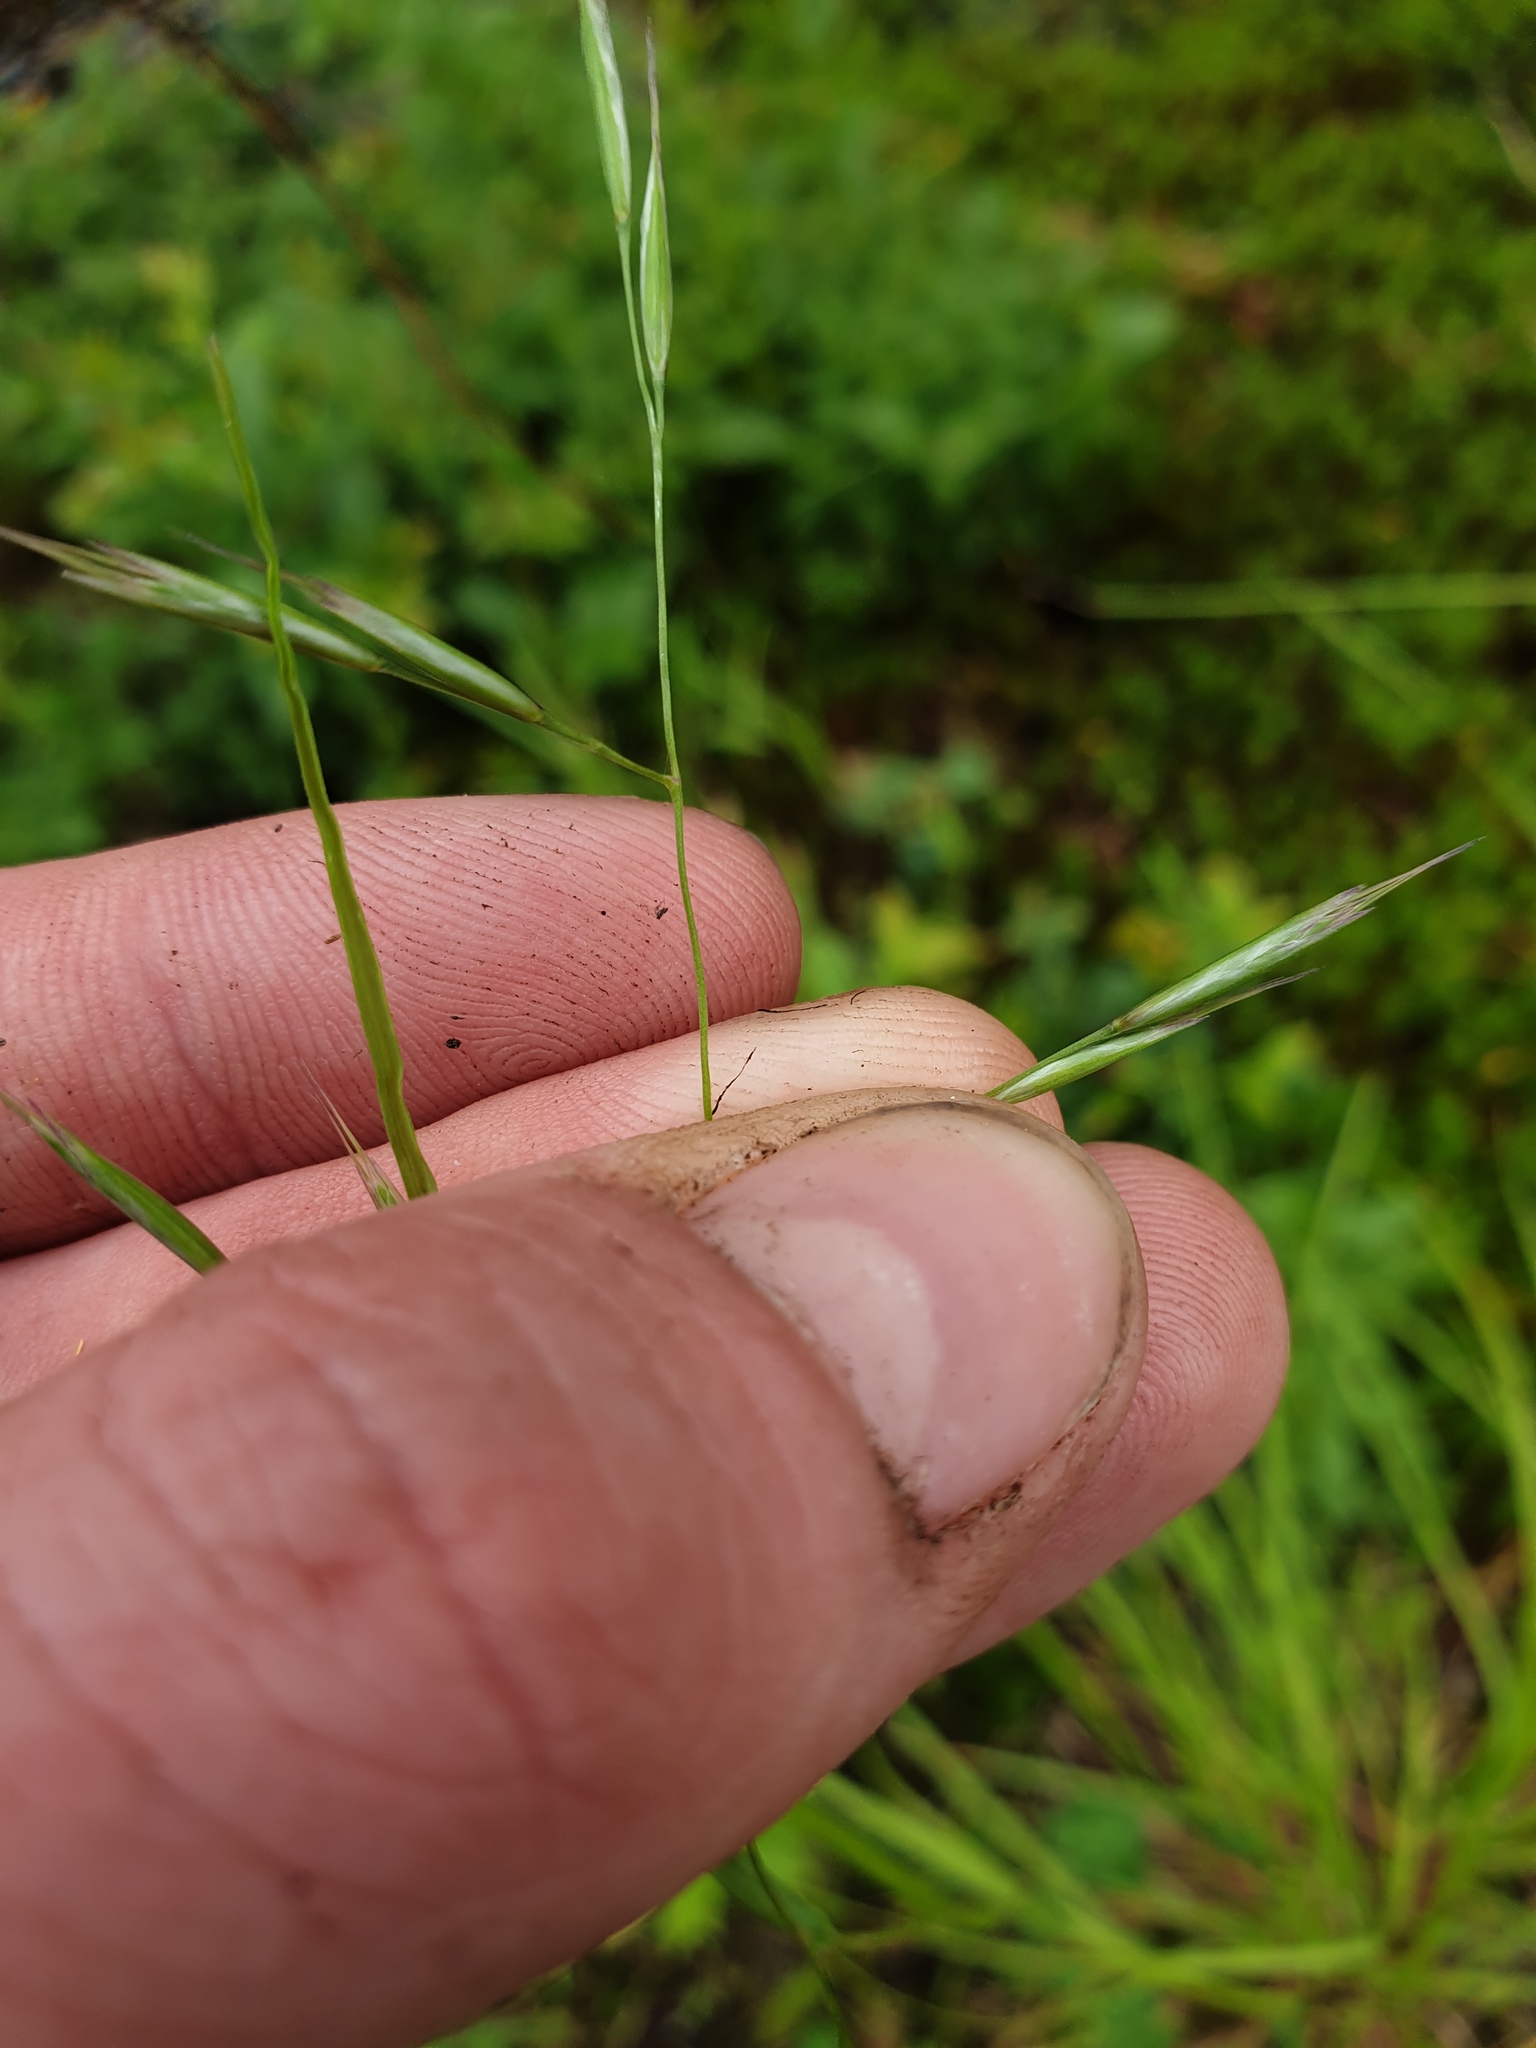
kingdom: Plantae
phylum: Tracheophyta
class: Liliopsida
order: Poales
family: Poaceae
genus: Danthonia
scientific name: Danthonia compressa
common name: Flat-stem oat grass
